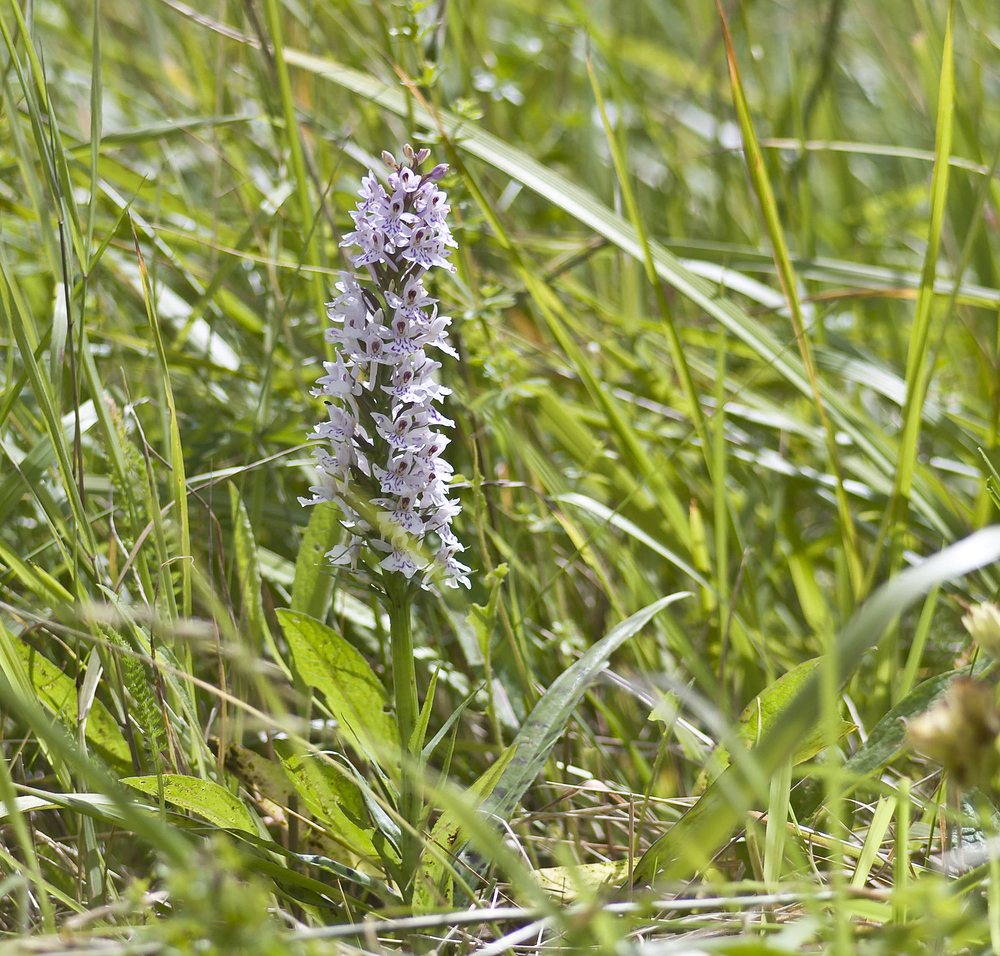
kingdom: Plantae
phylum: Tracheophyta
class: Liliopsida
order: Asparagales
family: Orchidaceae
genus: Dactylorhiza
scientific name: Dactylorhiza maculata
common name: Heath spotted-orchid
